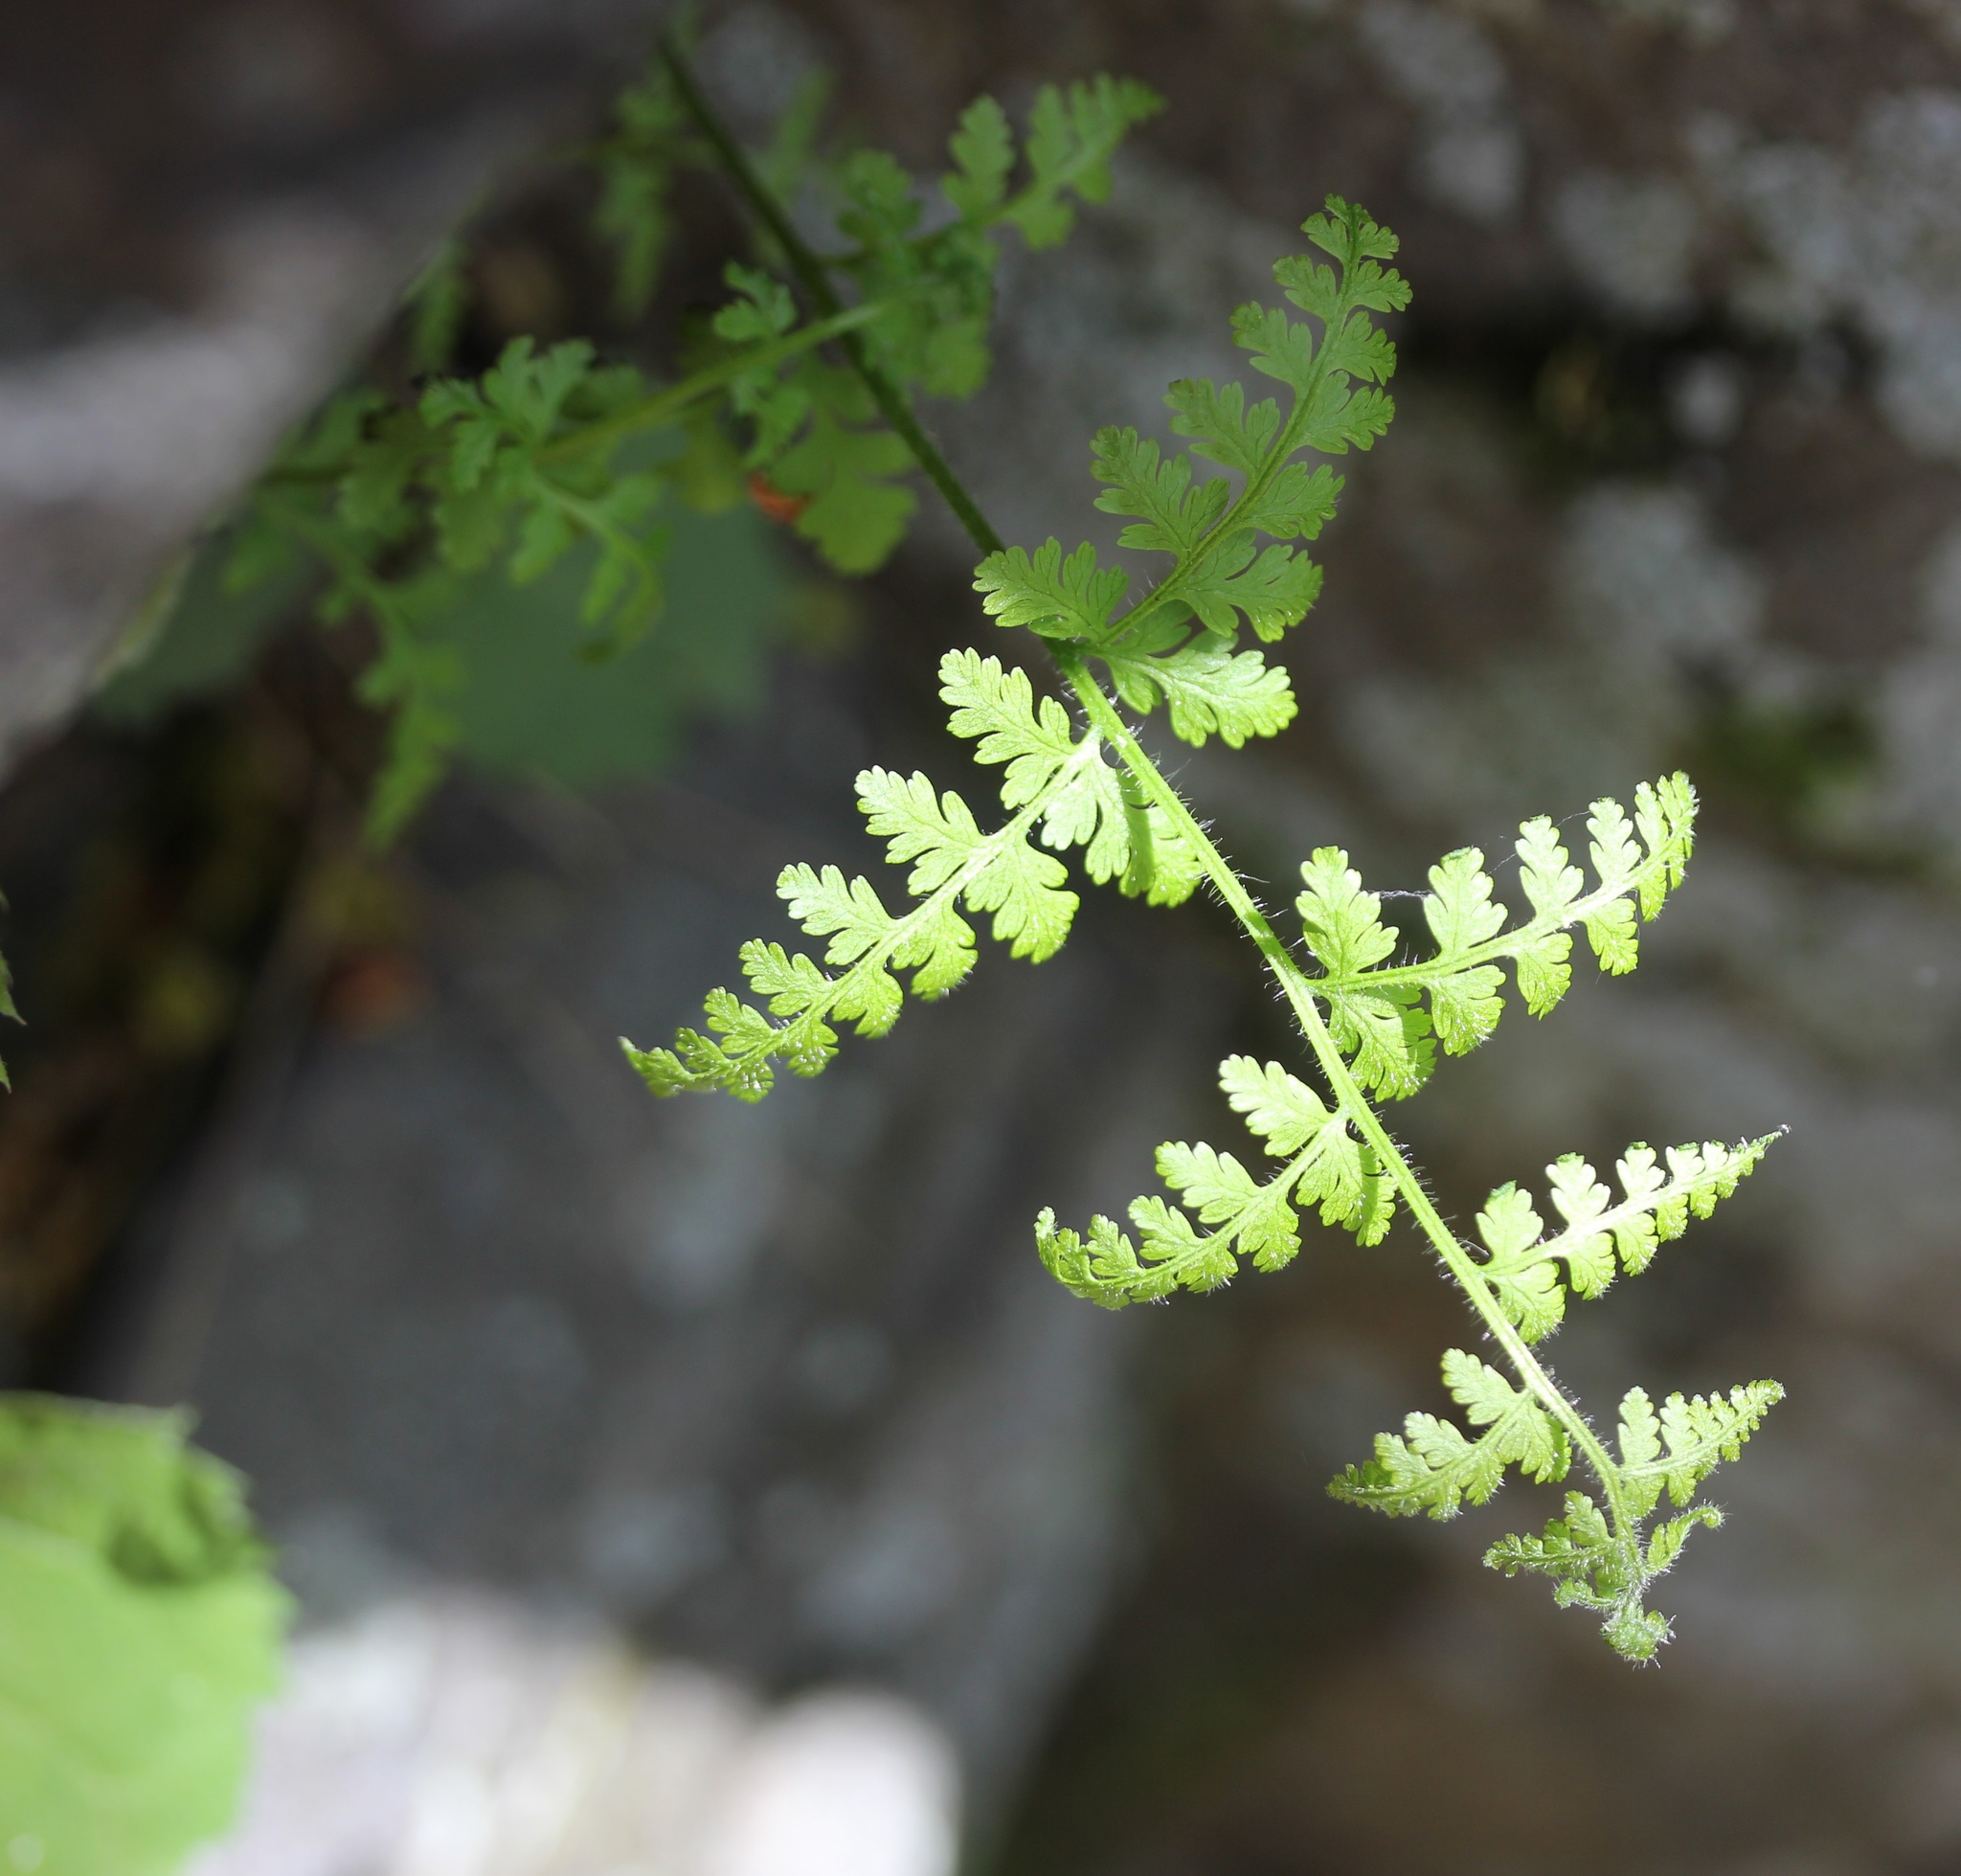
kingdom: Plantae
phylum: Tracheophyta
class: Polypodiopsida
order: Polypodiales
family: Dennstaedtiaceae
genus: Sitobolium
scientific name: Sitobolium punctilobum
